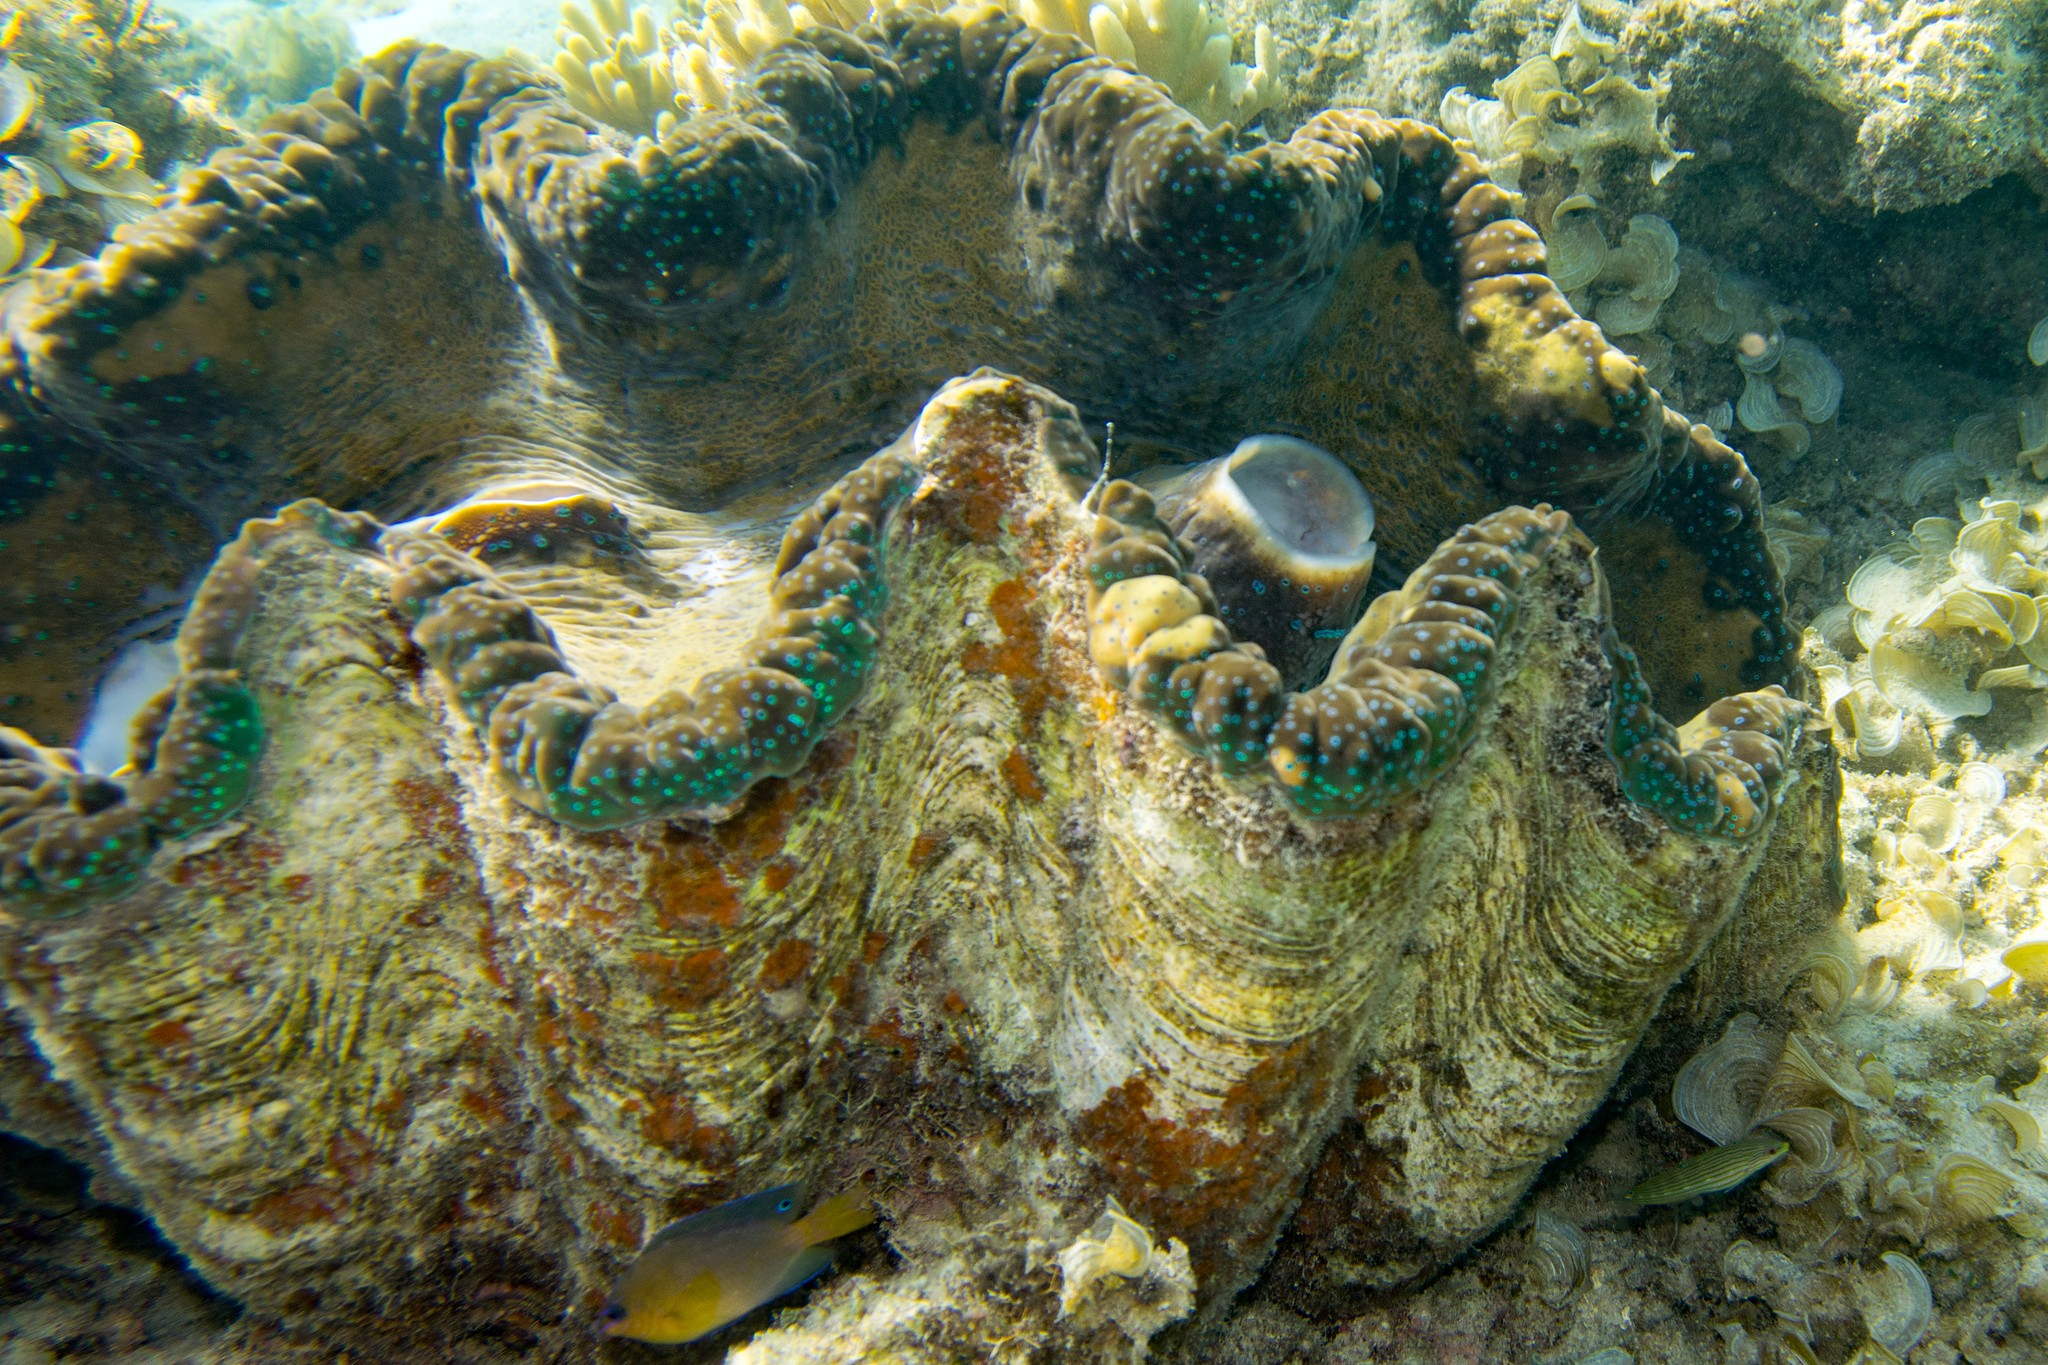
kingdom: Animalia
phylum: Mollusca
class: Bivalvia
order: Cardiida
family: Cardiidae
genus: Tridacna
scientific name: Tridacna gigas
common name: Giant clam
